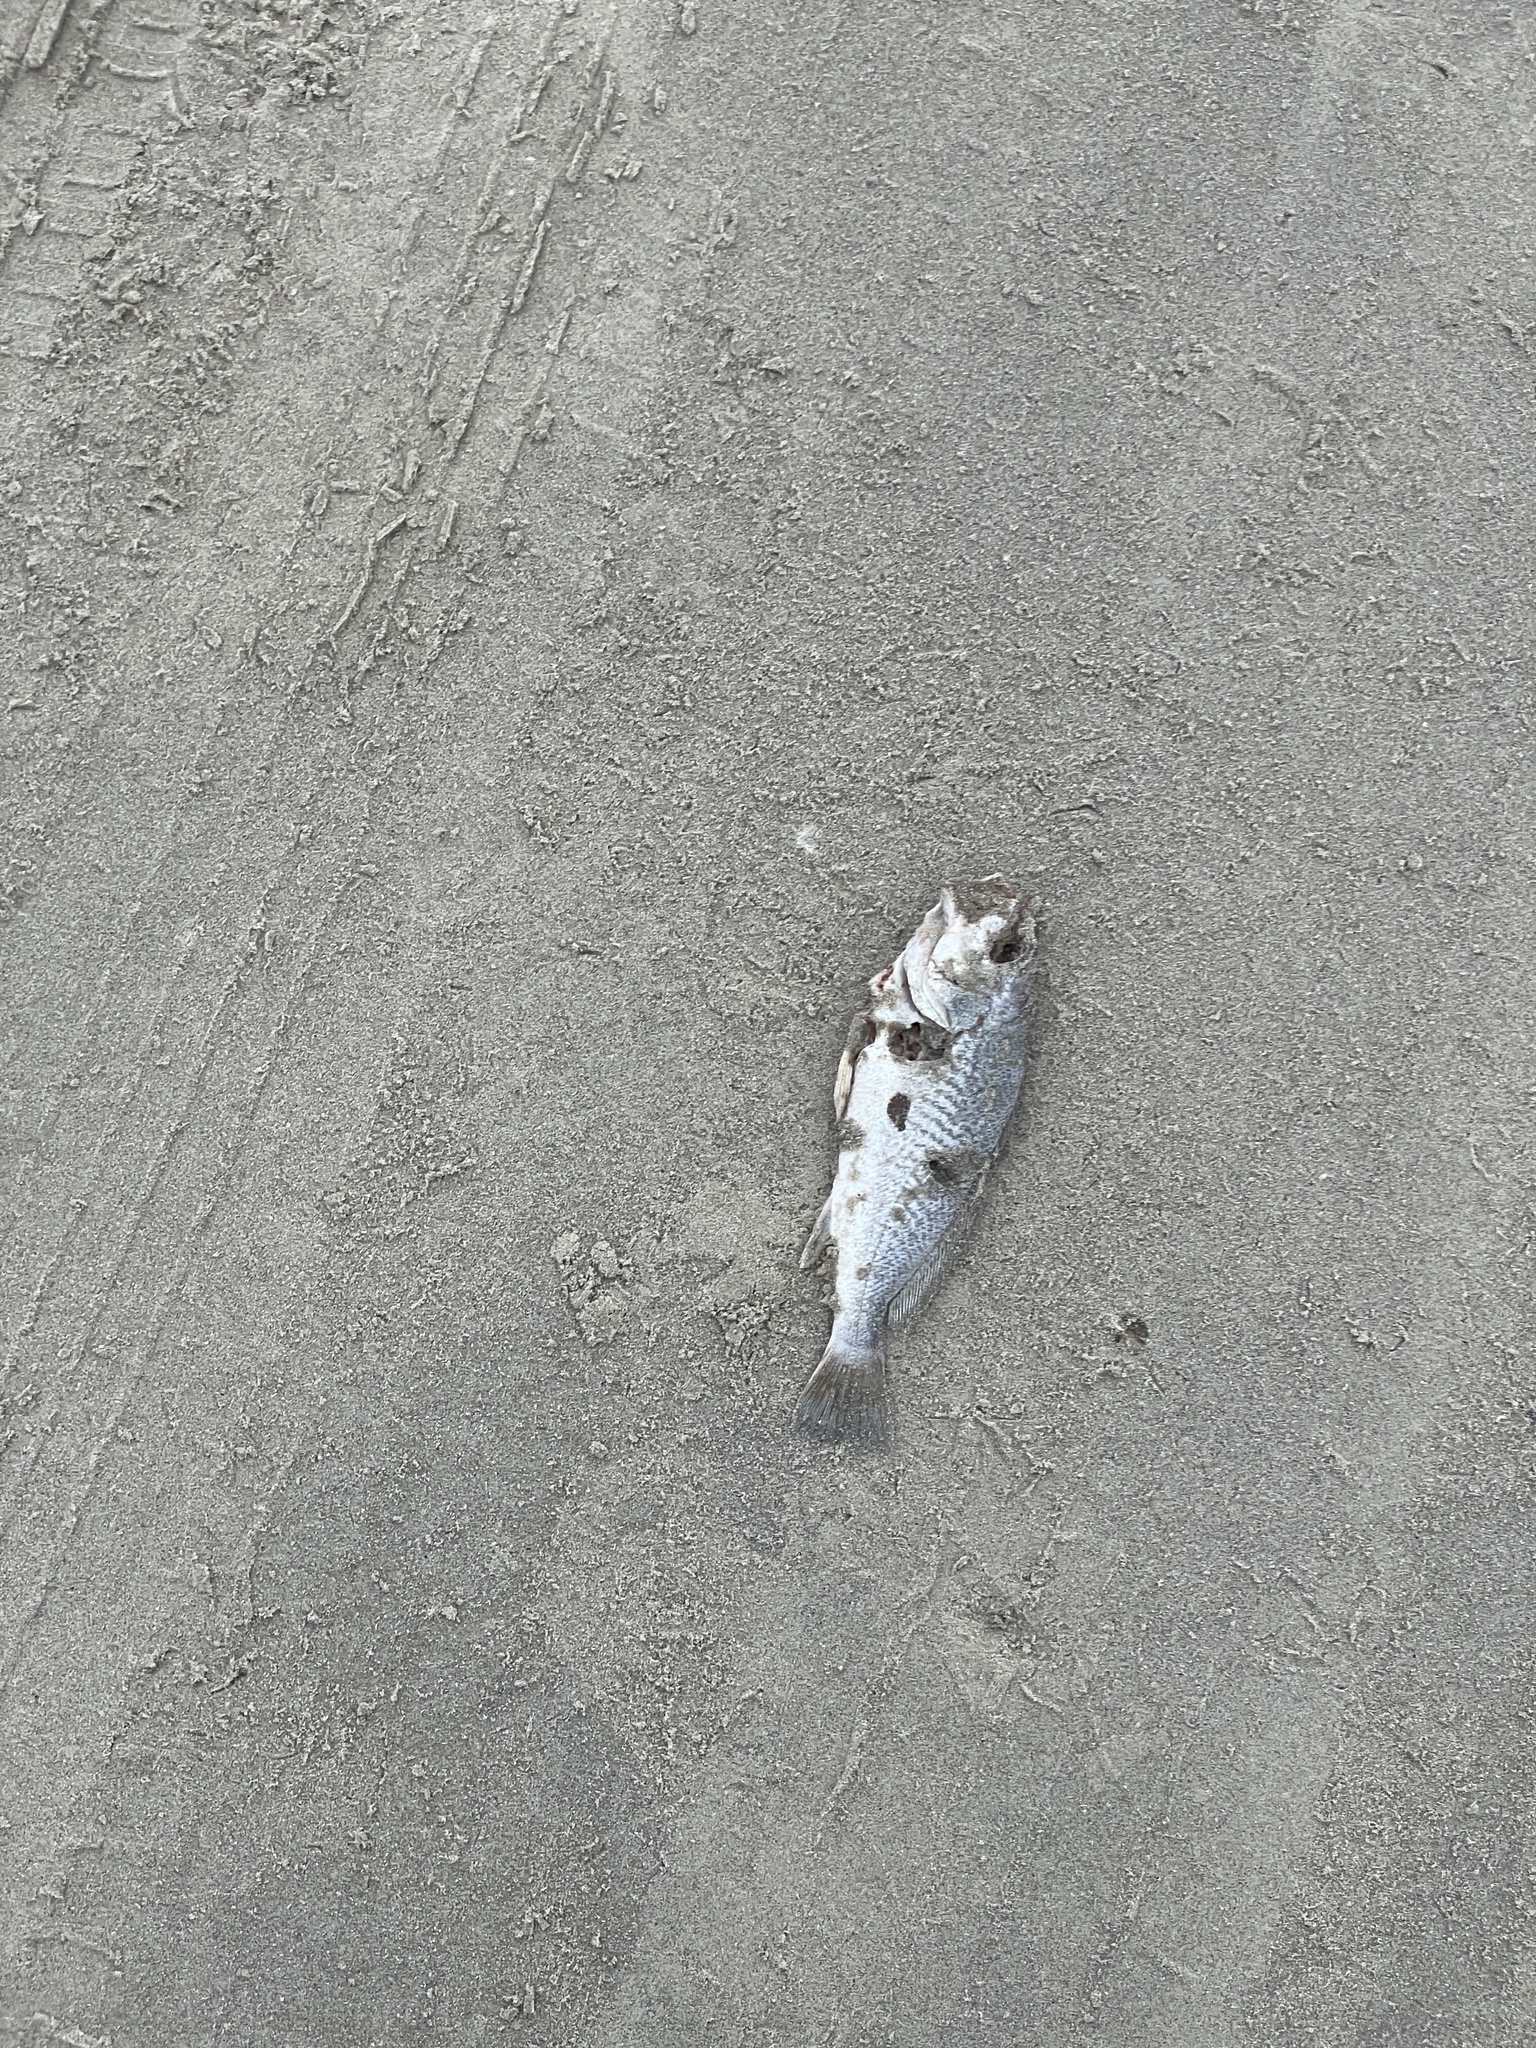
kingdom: Animalia
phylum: Chordata
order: Perciformes
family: Sciaenidae
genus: Micropogonias
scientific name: Micropogonias undulatus
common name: Atlantic croaker
